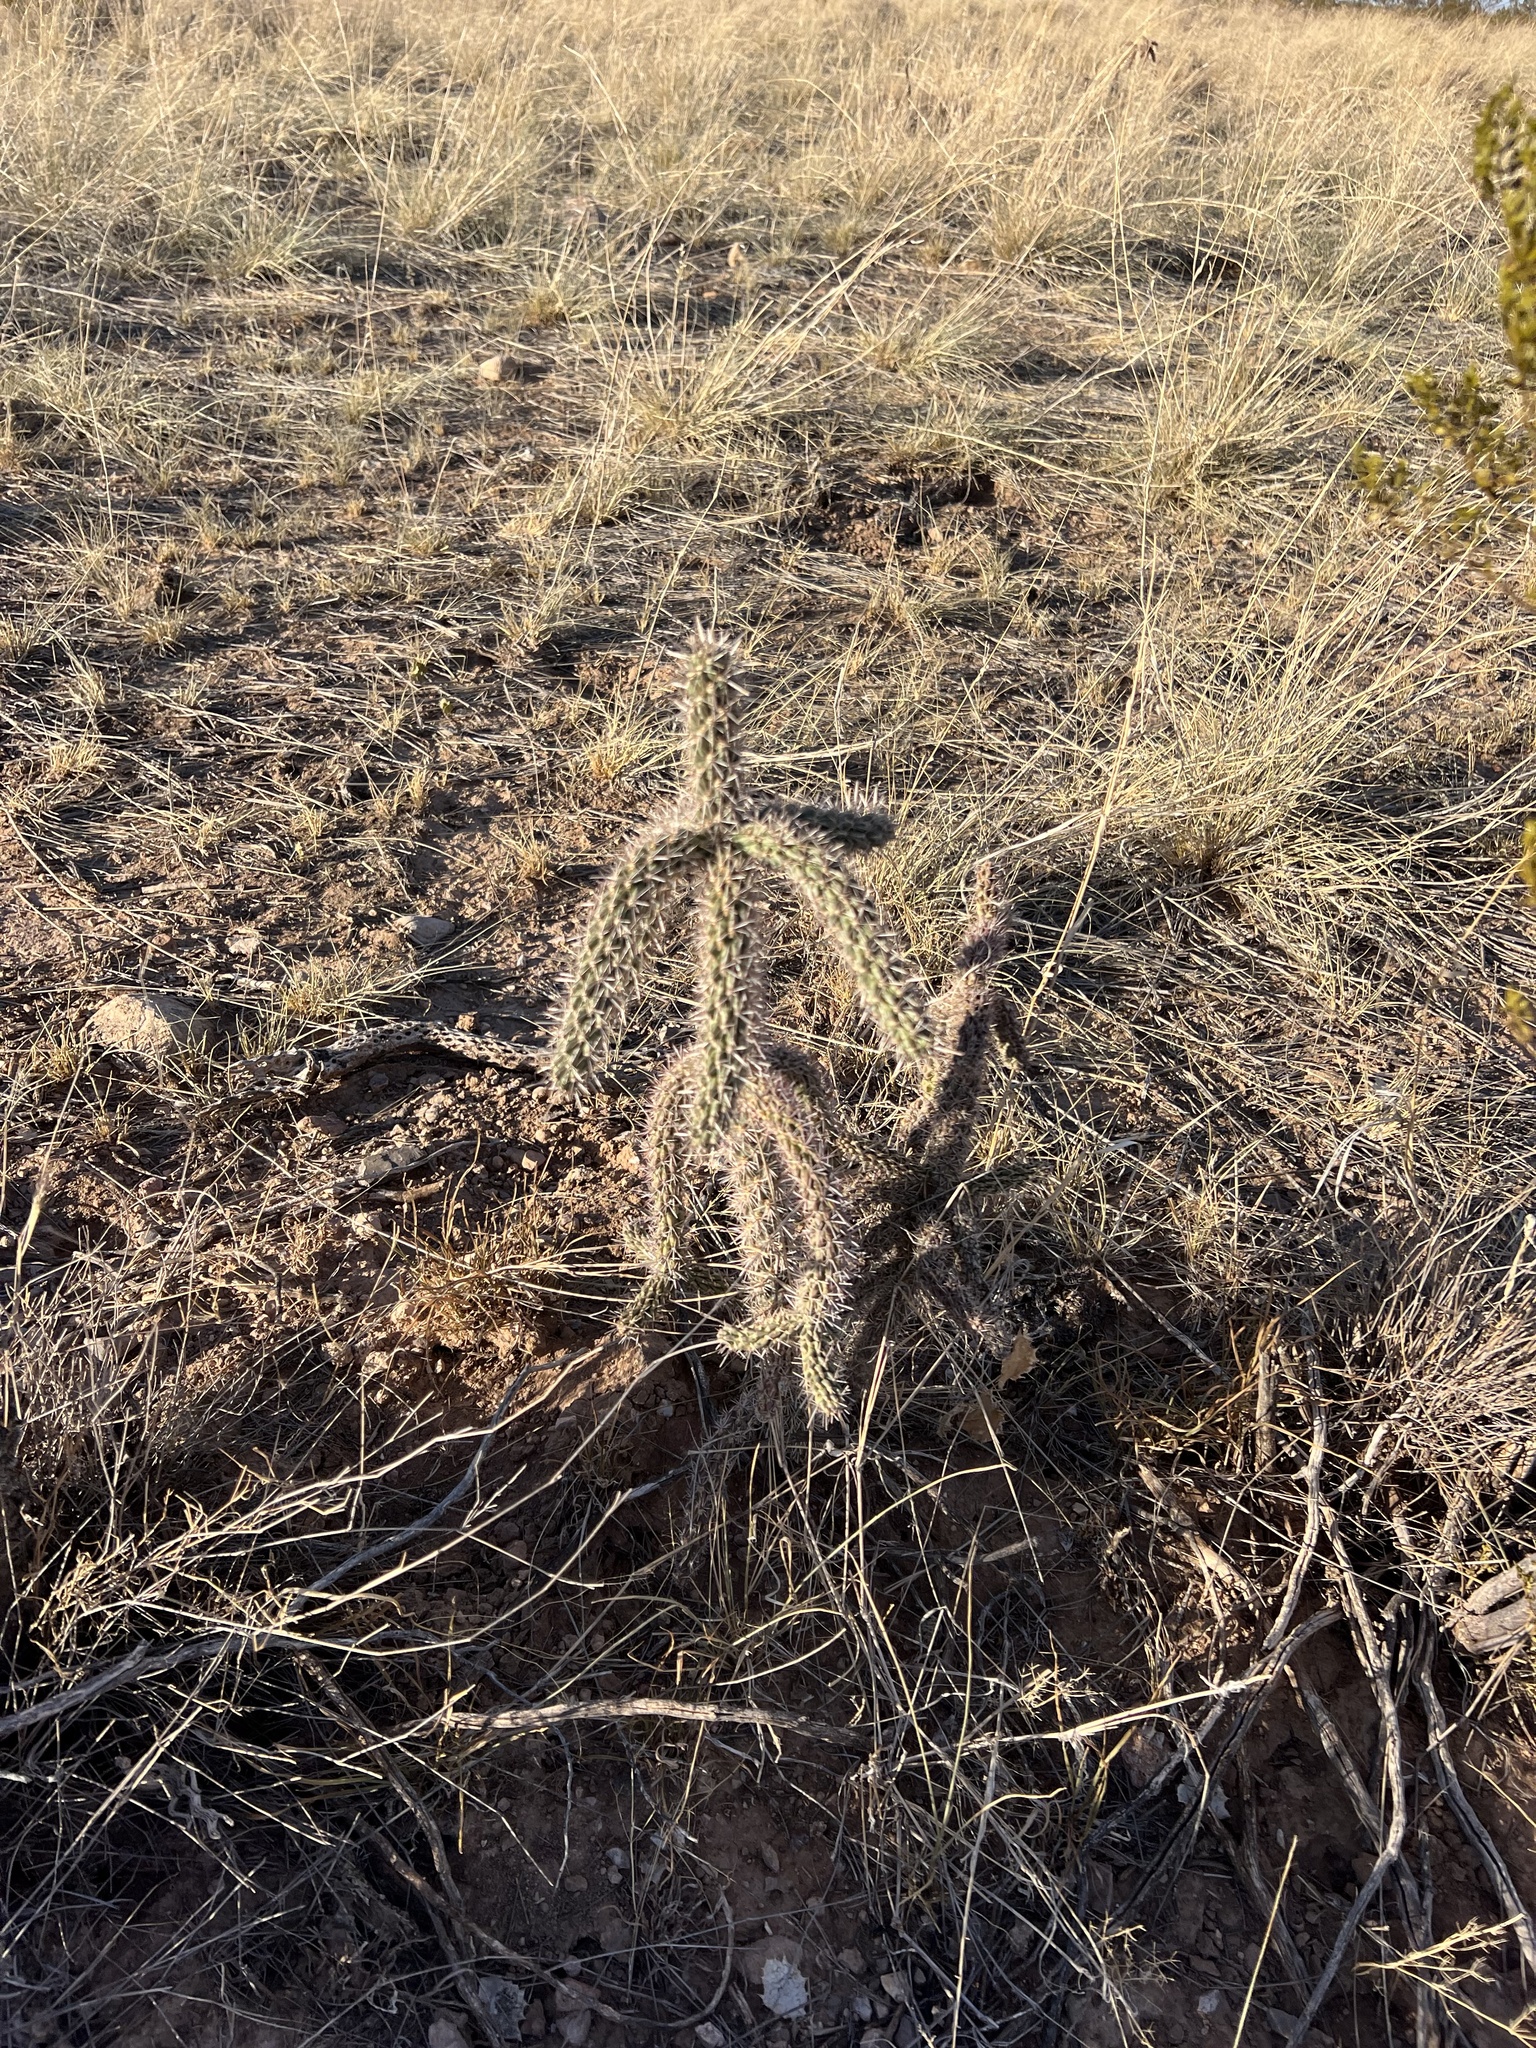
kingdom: Plantae
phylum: Tracheophyta
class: Magnoliopsida
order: Caryophyllales
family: Cactaceae
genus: Cylindropuntia
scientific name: Cylindropuntia imbricata
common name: Candelabrum cactus
